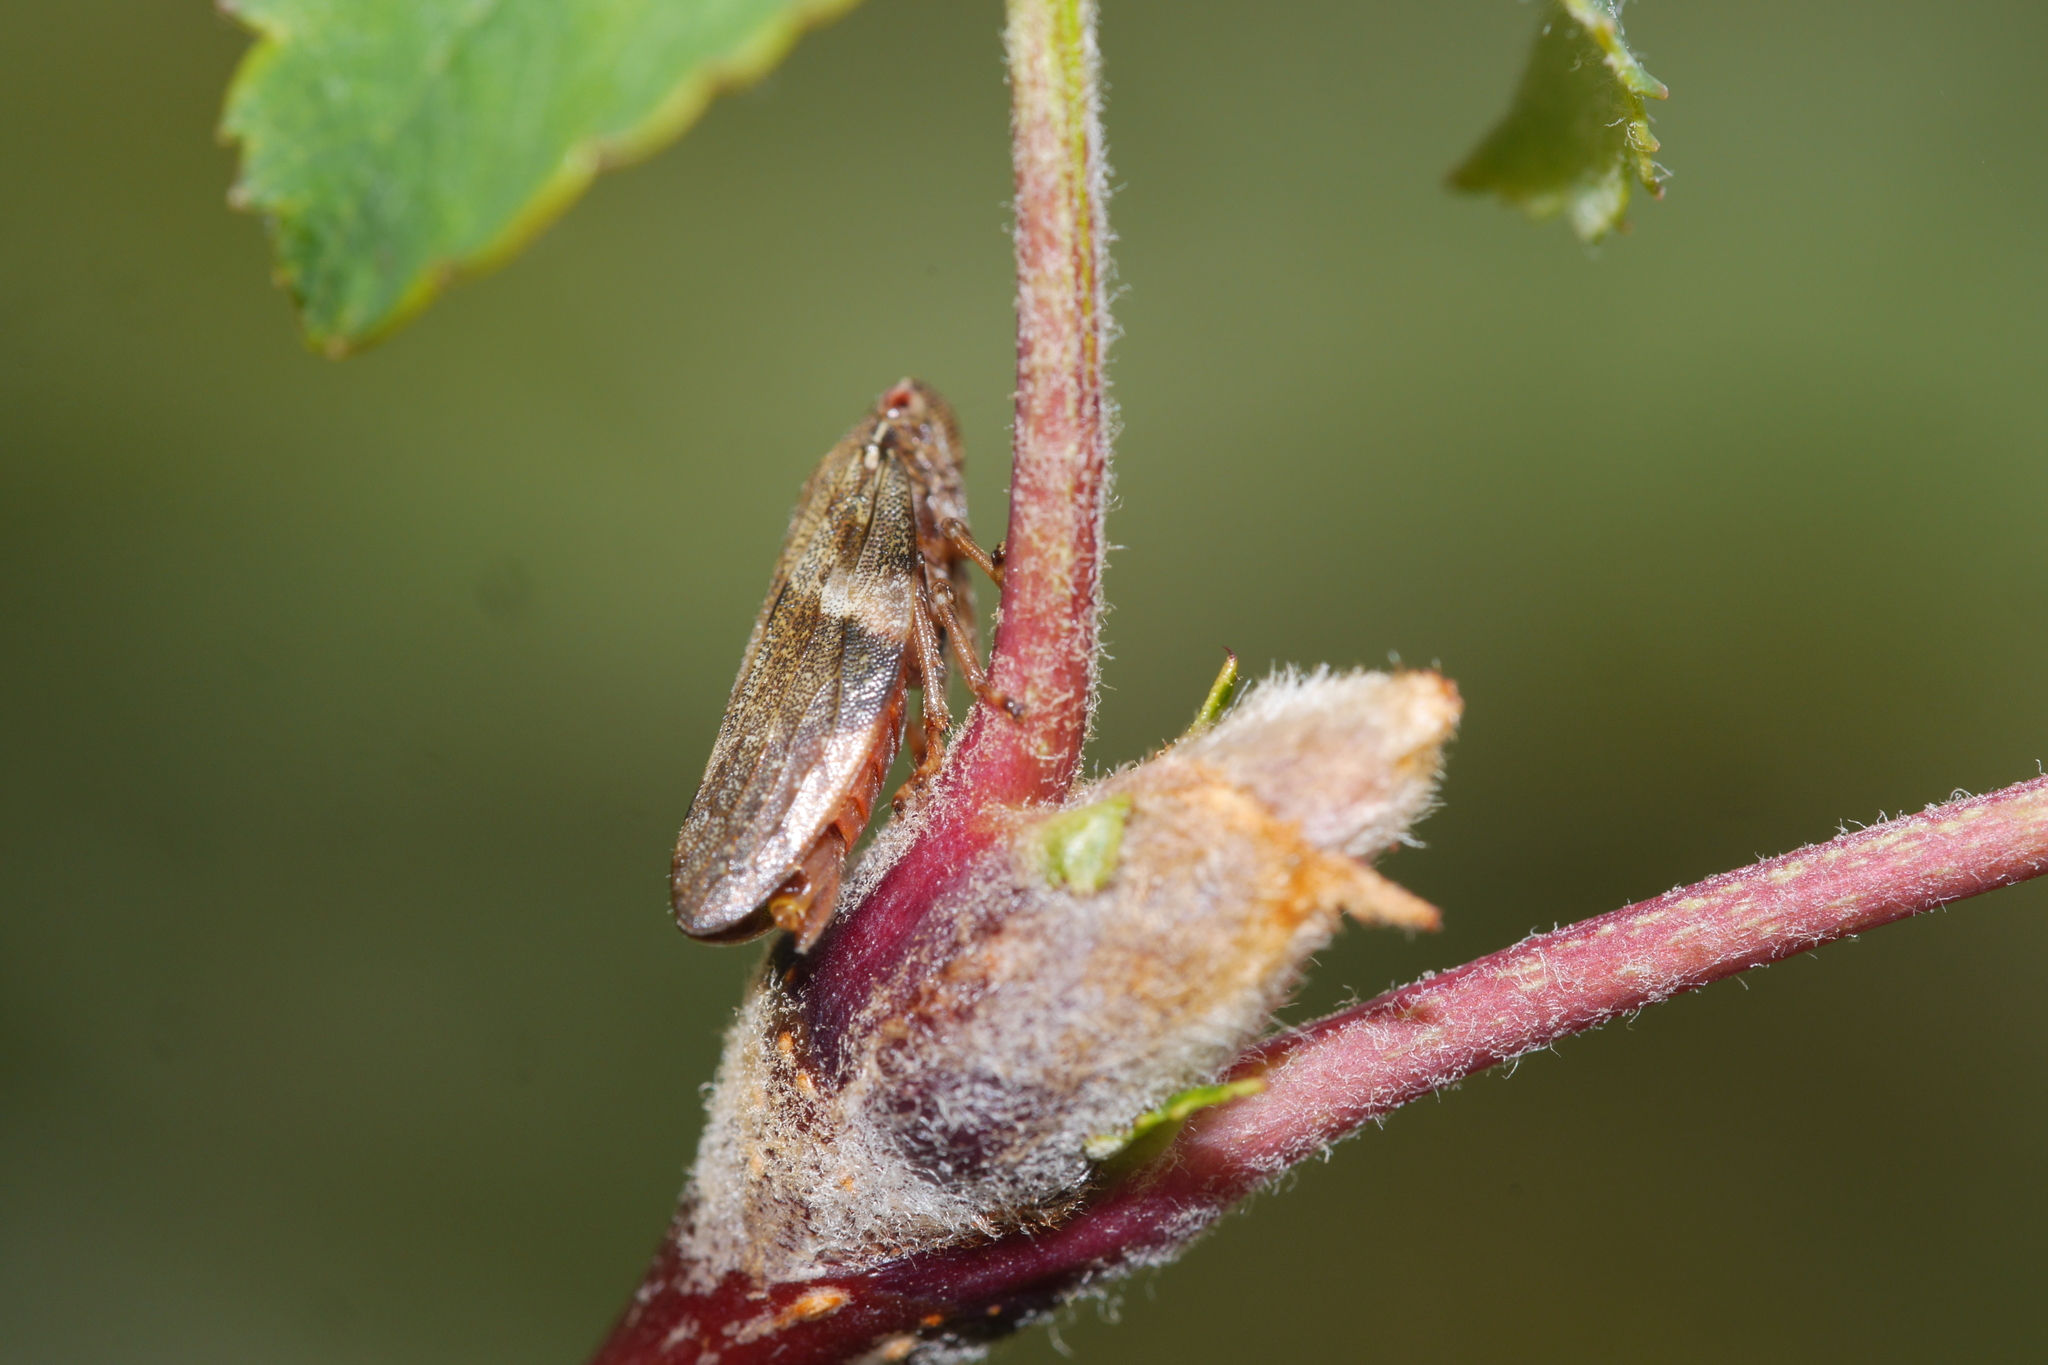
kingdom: Animalia
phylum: Arthropoda
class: Insecta
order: Hemiptera
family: Aphrophoridae
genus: Aphrophora
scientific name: Aphrophora alni
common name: European alder spittlebug
